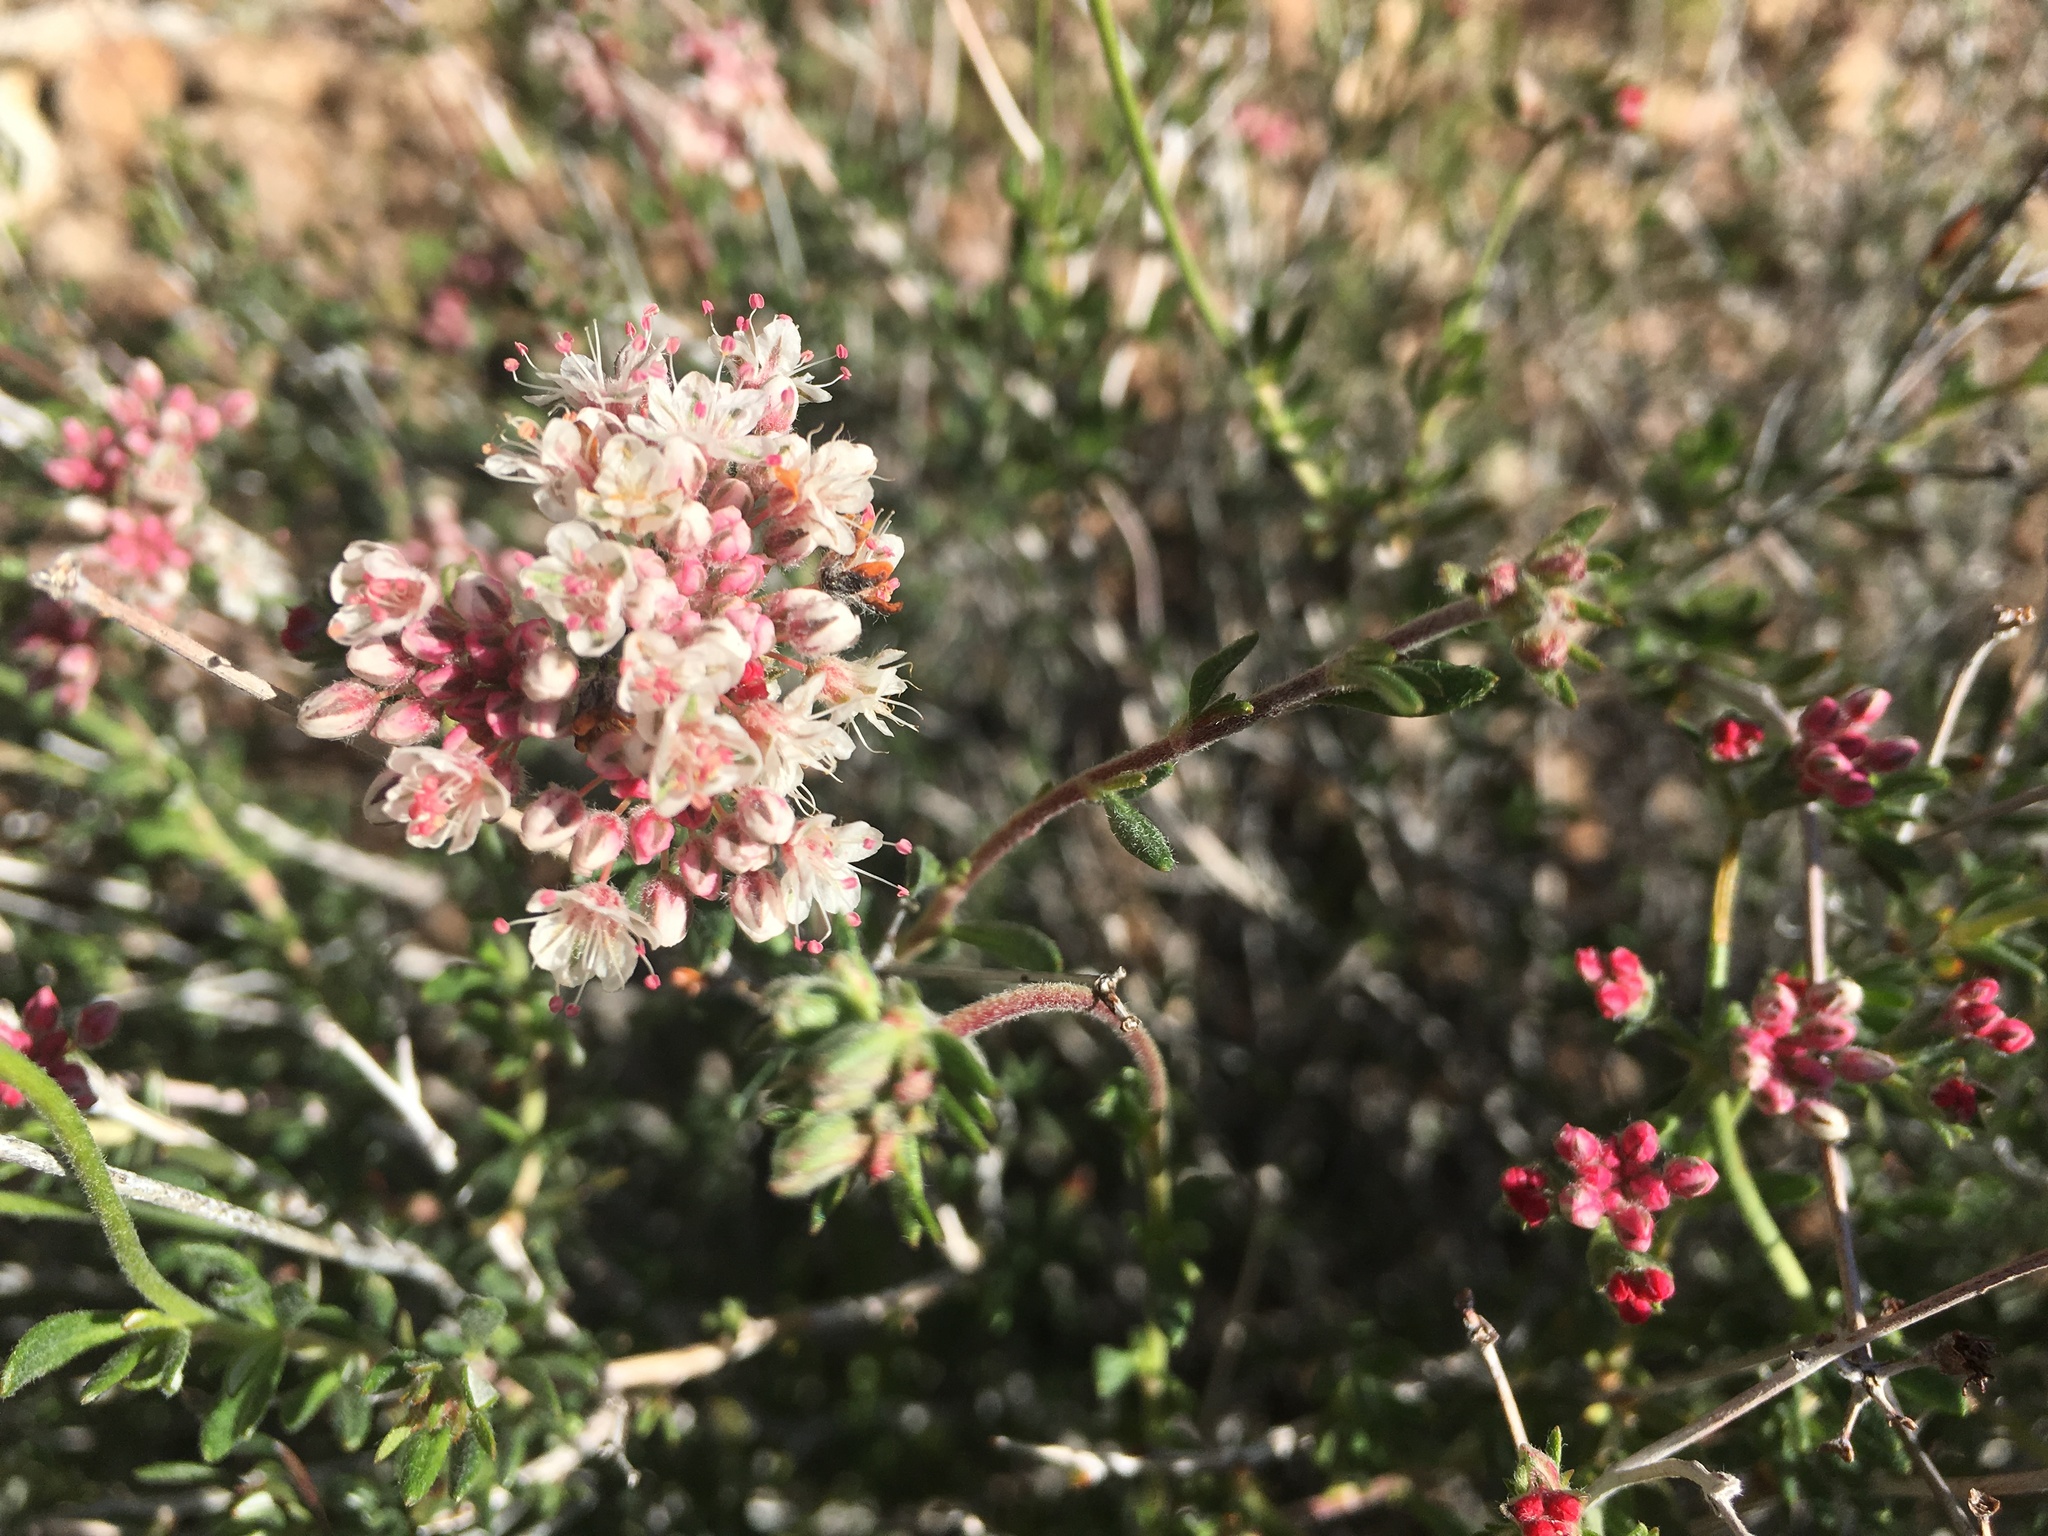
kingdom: Plantae
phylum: Tracheophyta
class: Magnoliopsida
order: Caryophyllales
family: Polygonaceae
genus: Eriogonum
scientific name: Eriogonum fasciculatum
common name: California wild buckwheat
